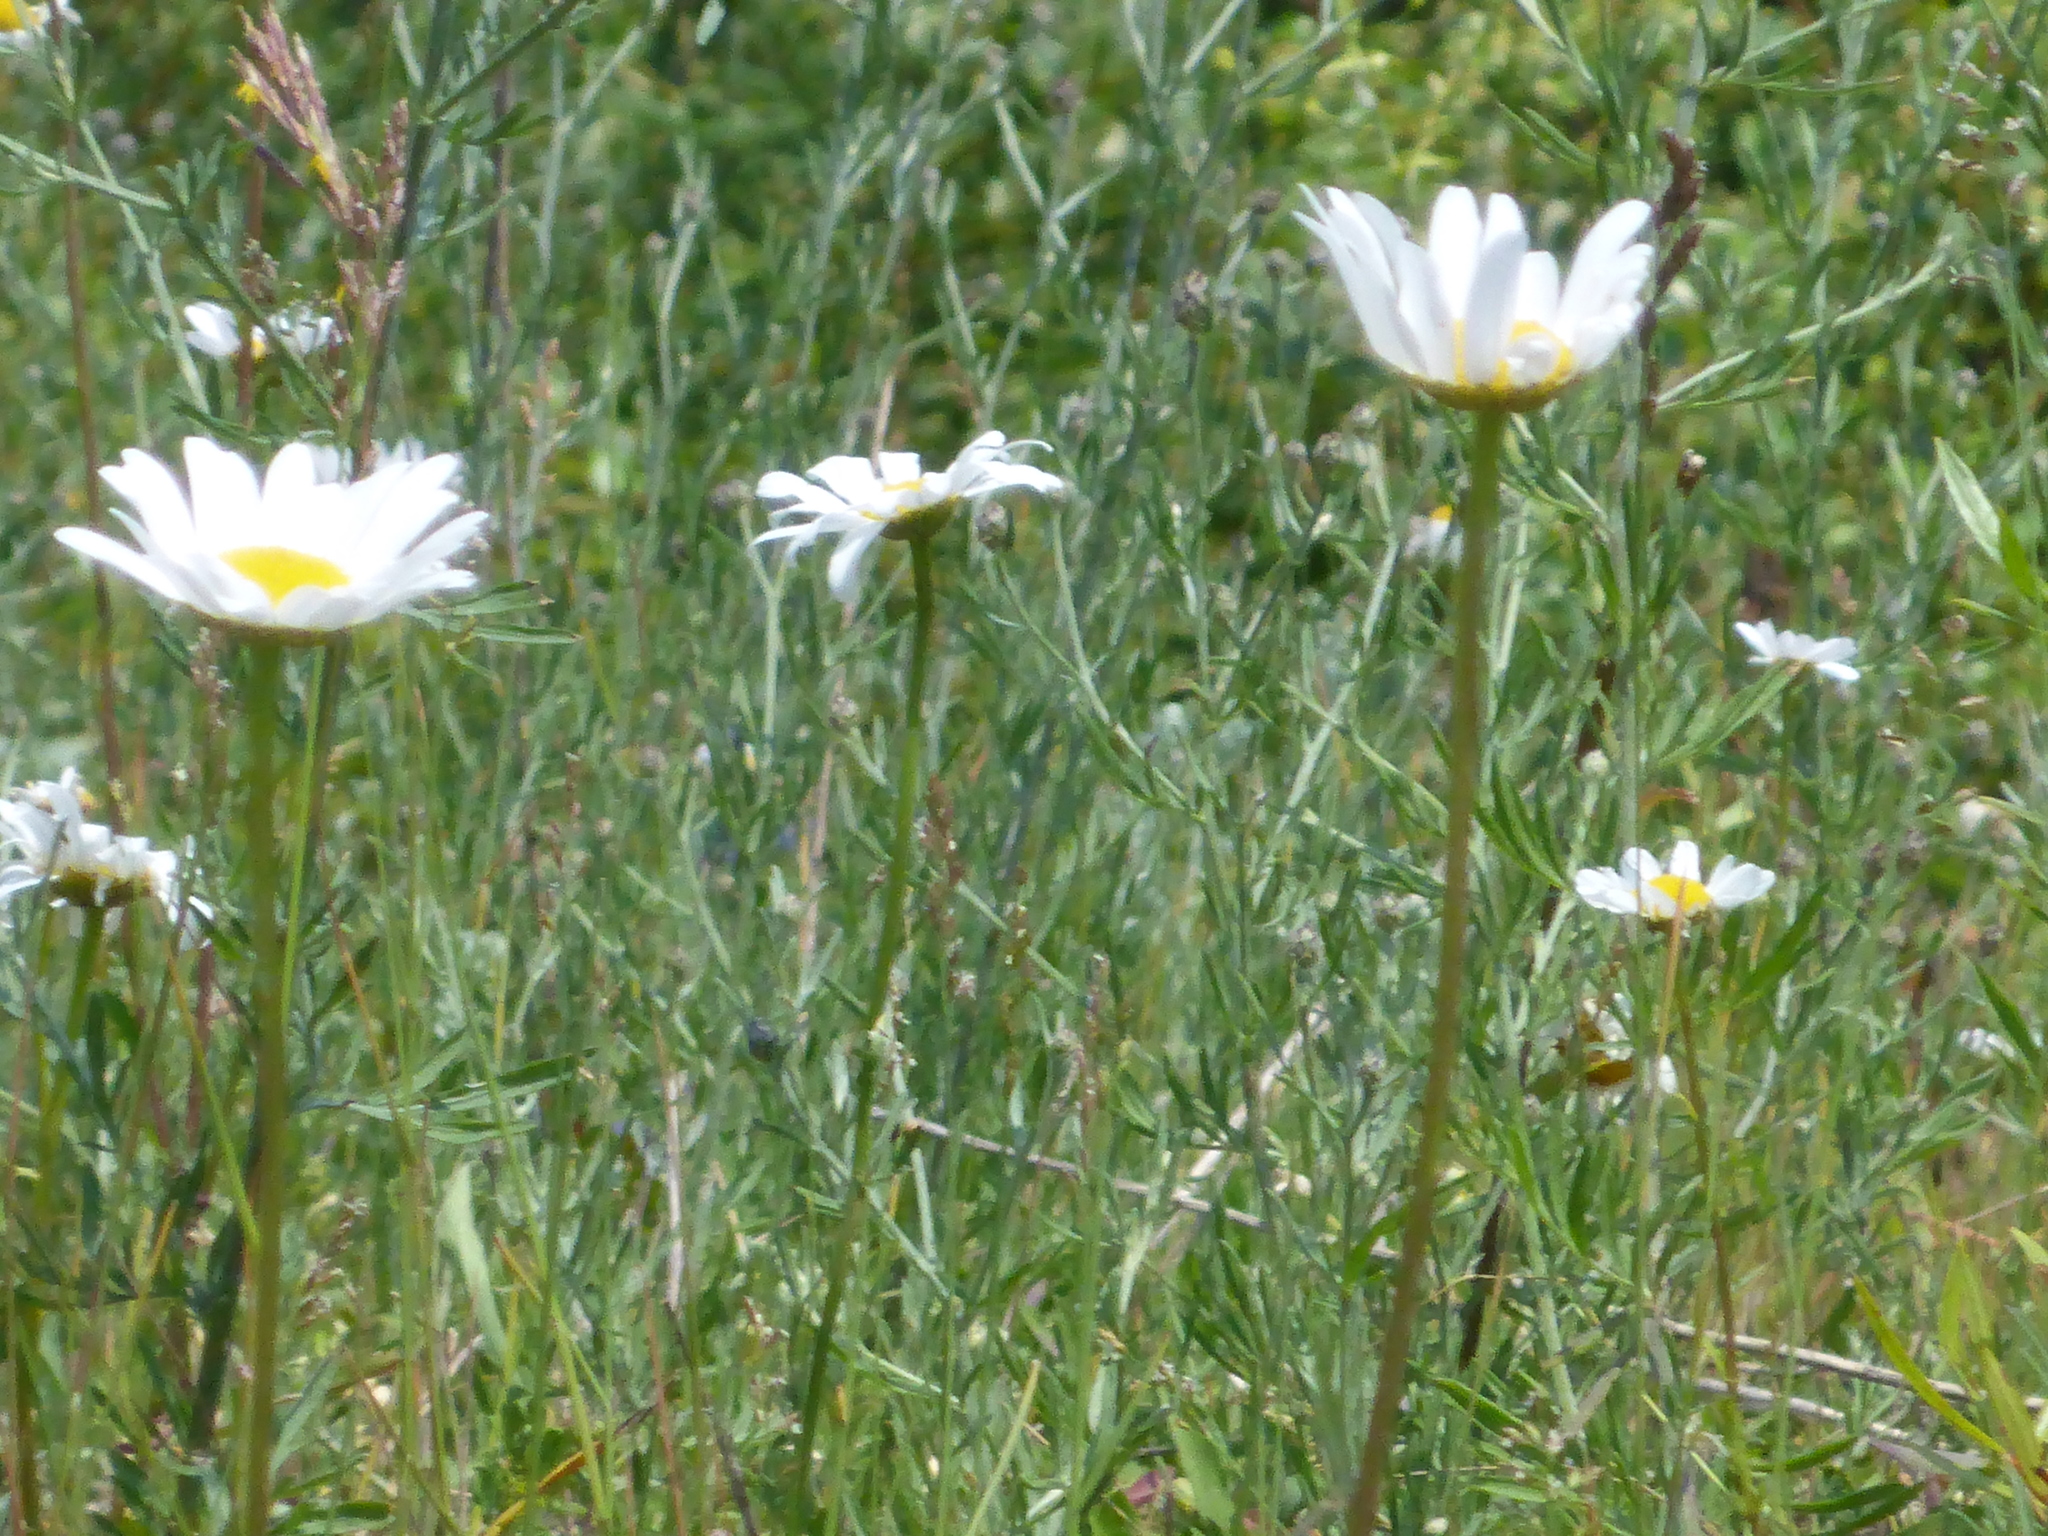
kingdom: Plantae
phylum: Tracheophyta
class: Magnoliopsida
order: Asterales
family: Asteraceae
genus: Leucanthemum
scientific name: Leucanthemum vulgare
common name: Oxeye daisy
